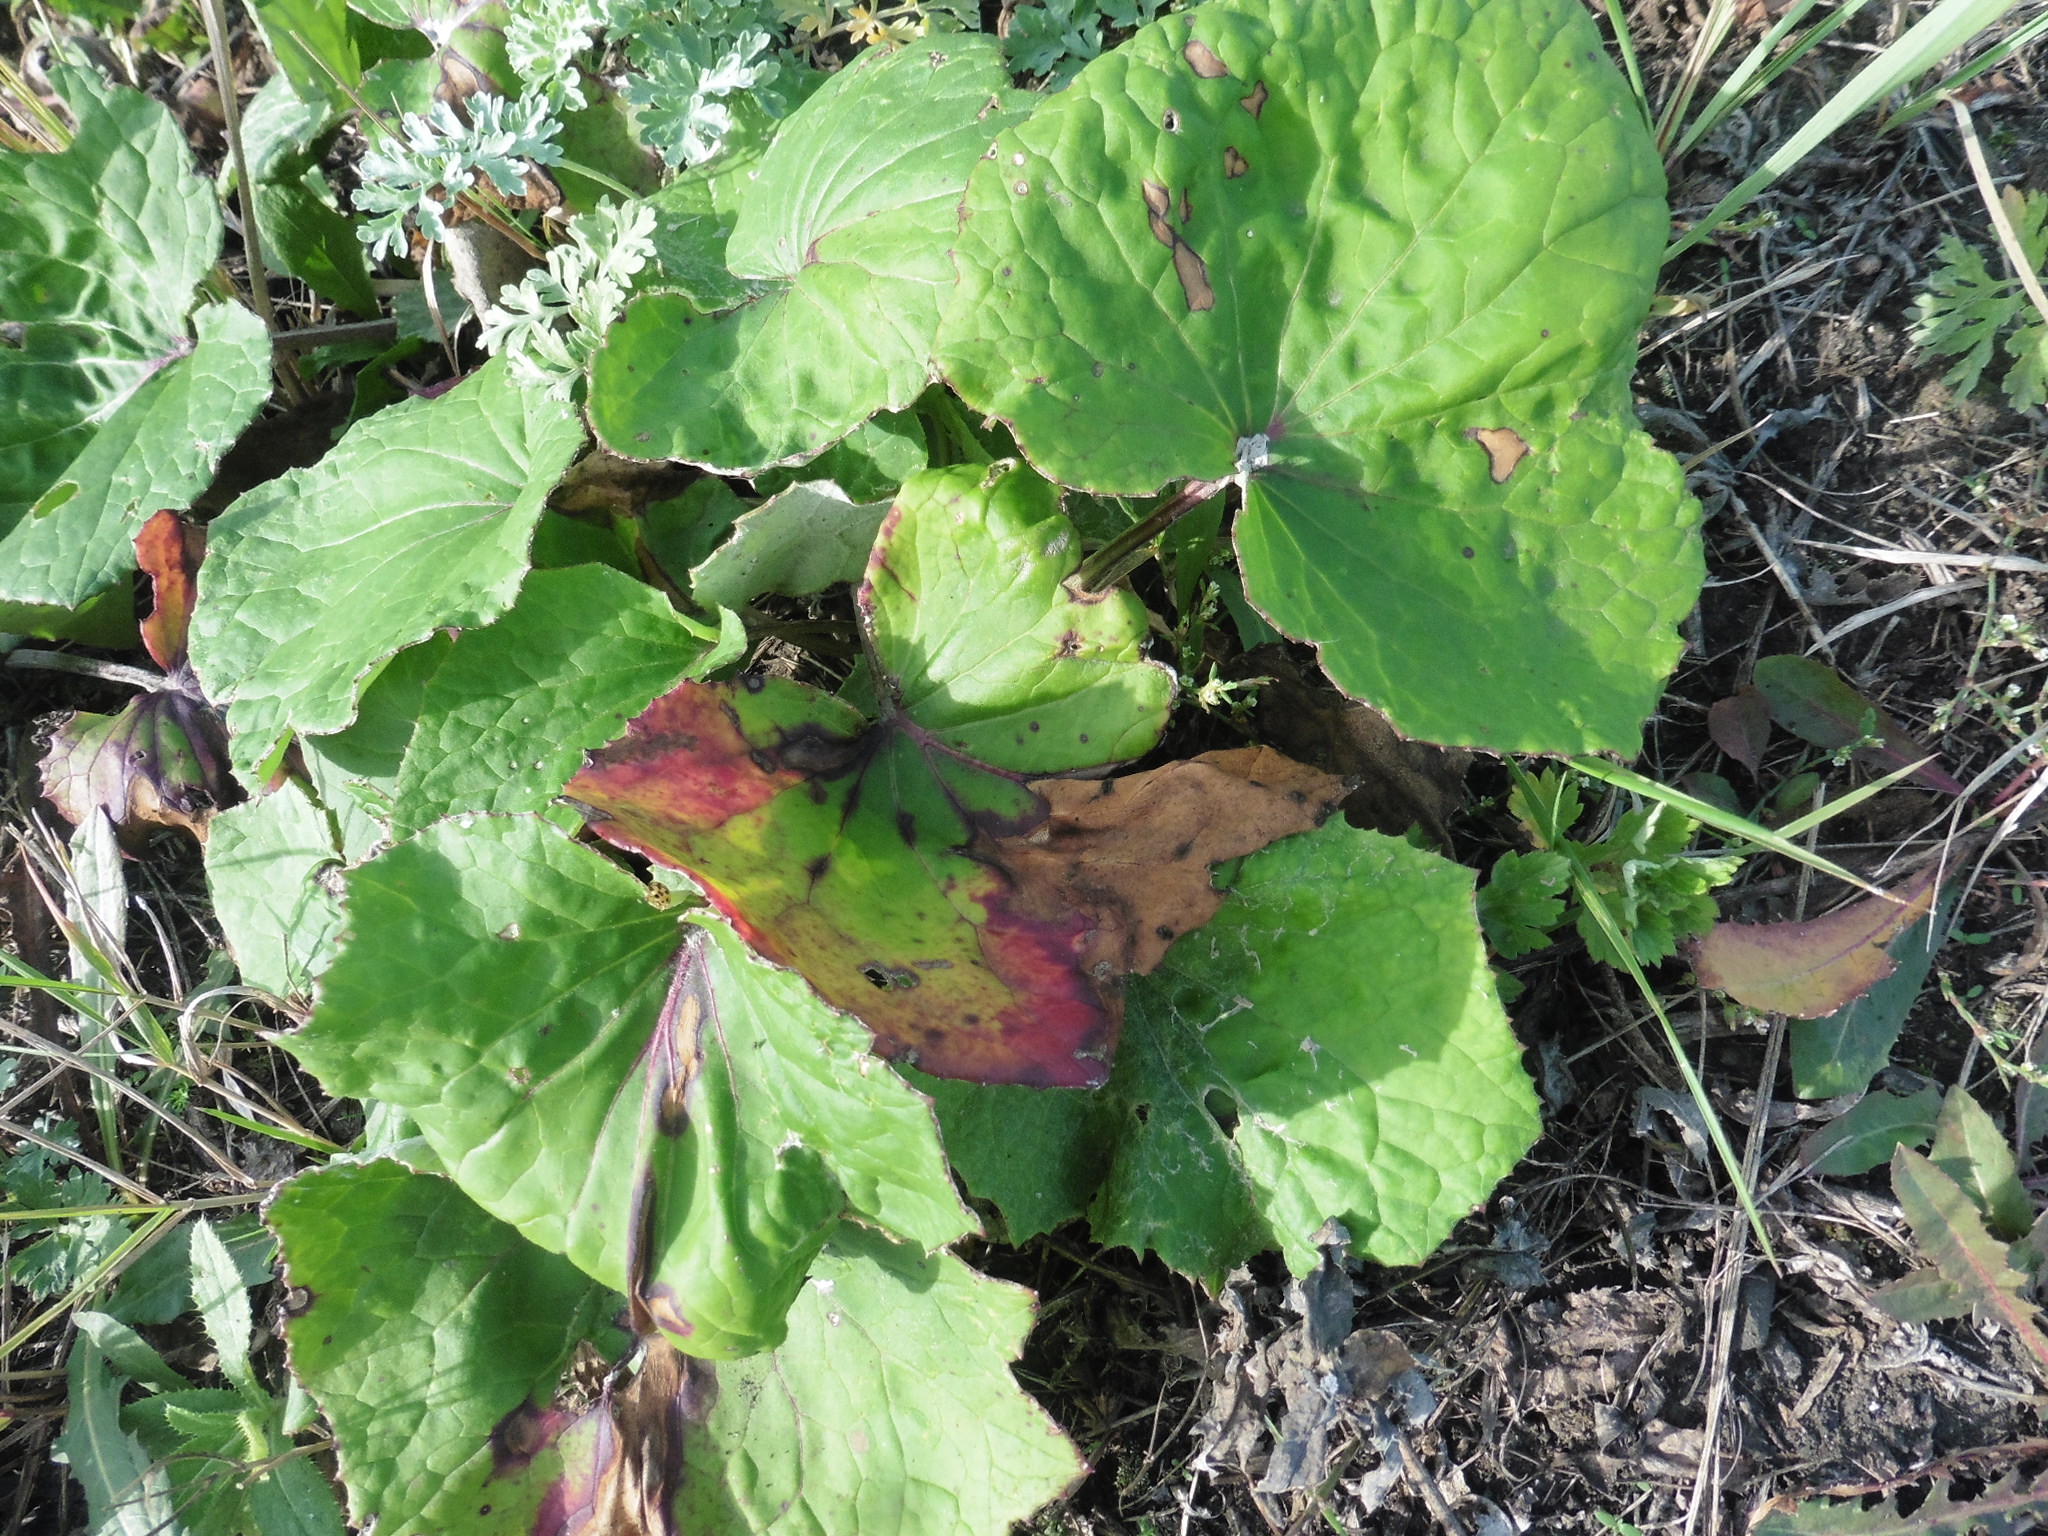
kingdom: Plantae
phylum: Tracheophyta
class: Magnoliopsida
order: Asterales
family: Asteraceae
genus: Tussilago
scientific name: Tussilago farfara
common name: Coltsfoot
